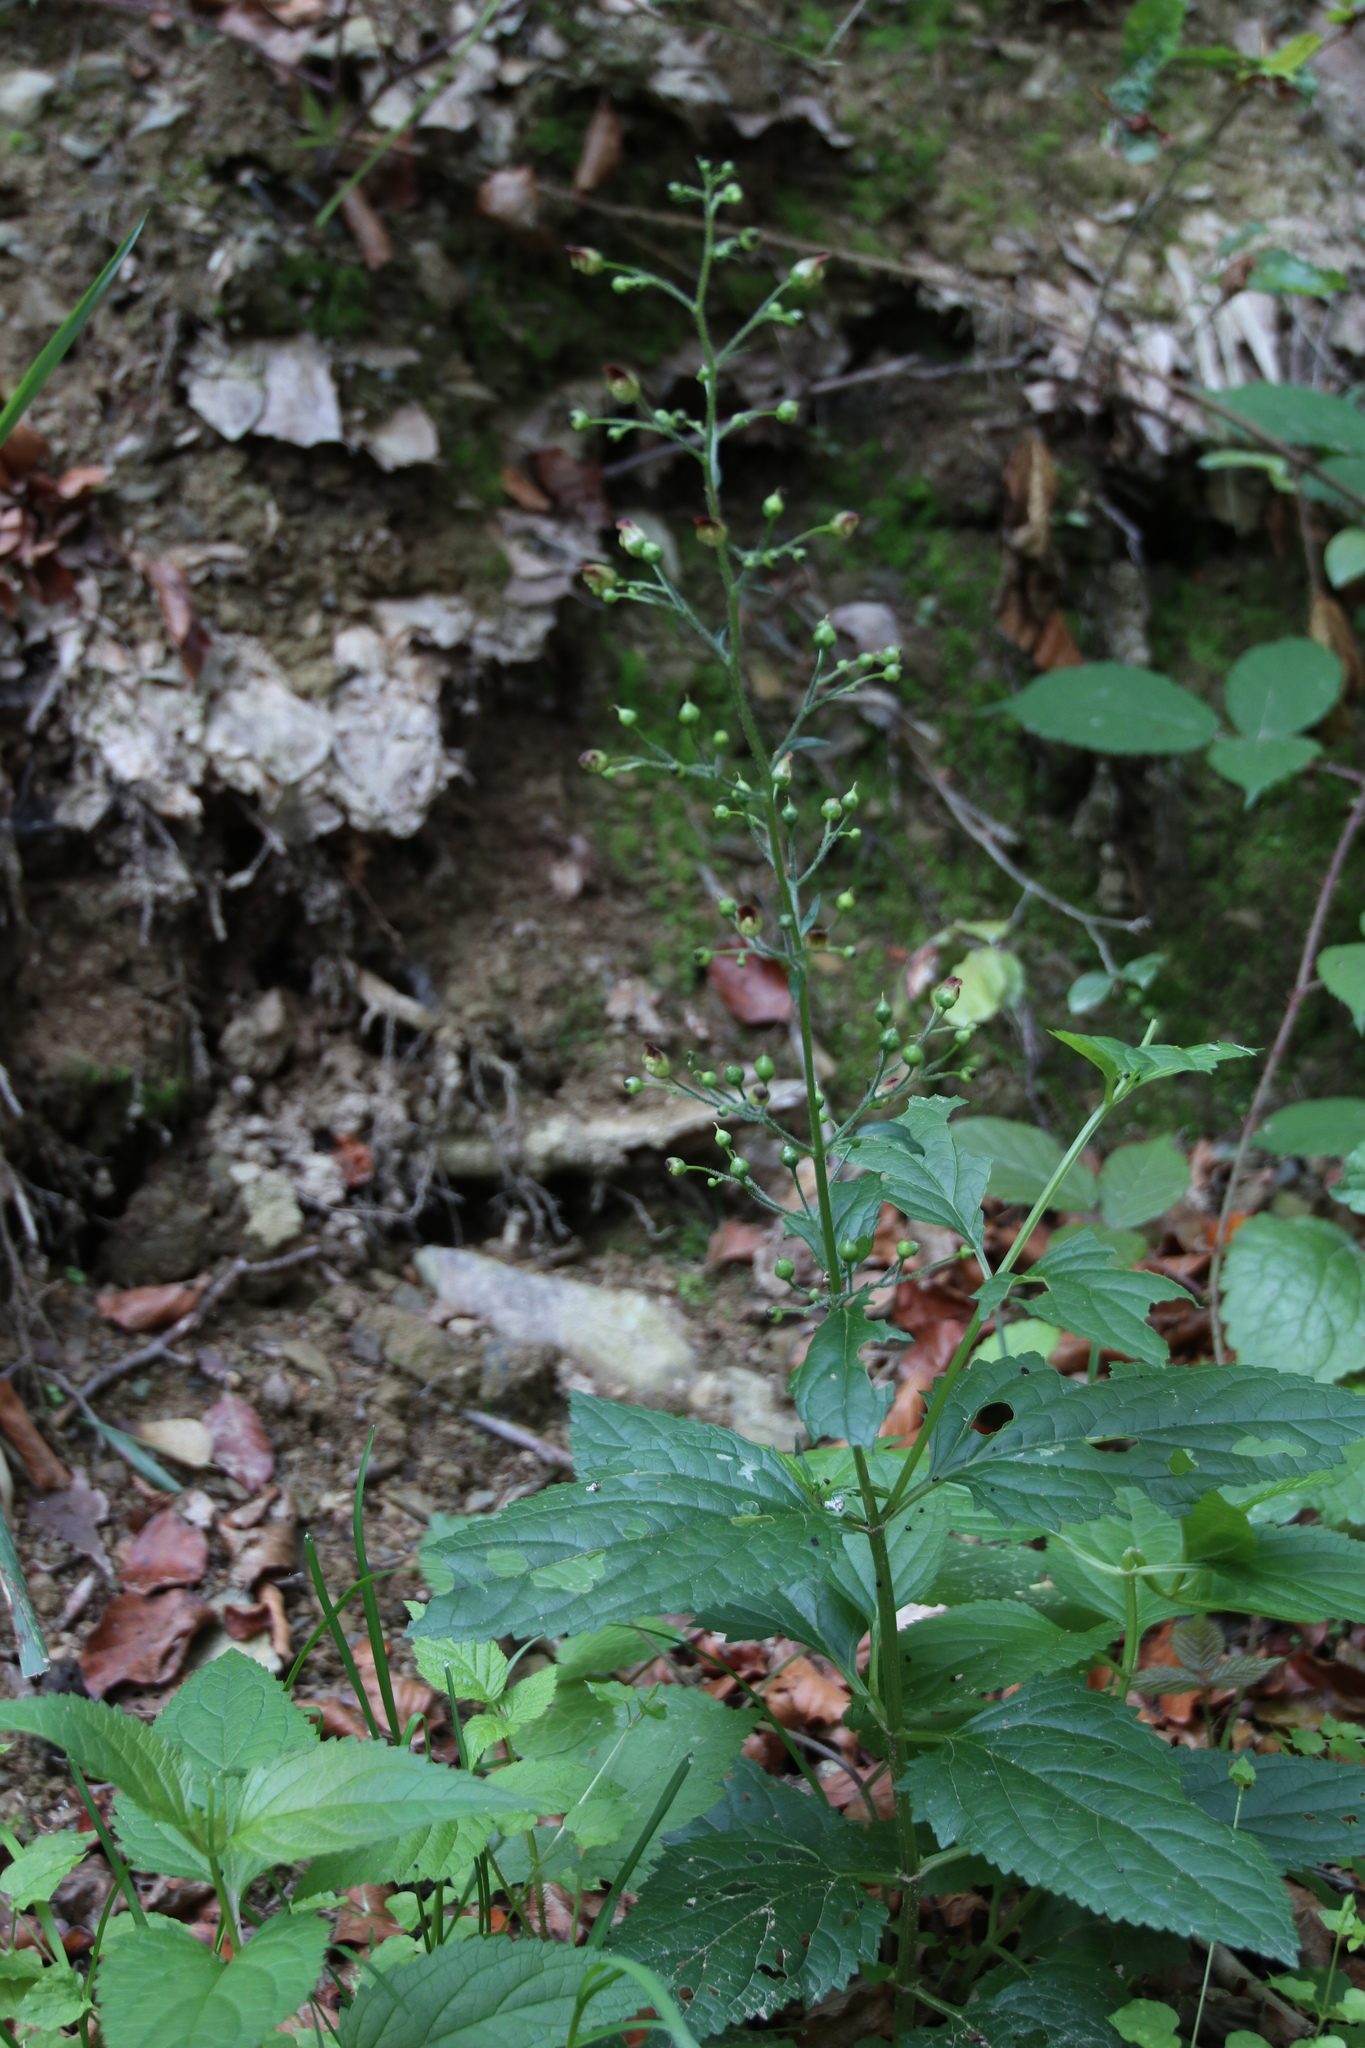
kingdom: Plantae
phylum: Tracheophyta
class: Magnoliopsida
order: Lamiales
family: Scrophulariaceae
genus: Scrophularia
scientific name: Scrophularia nodosa
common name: Common figwort
